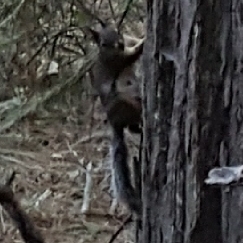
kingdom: Animalia
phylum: Chordata
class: Mammalia
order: Rodentia
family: Sciuridae
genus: Tamiasciurus
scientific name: Tamiasciurus douglasii
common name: Douglas's squirrel
